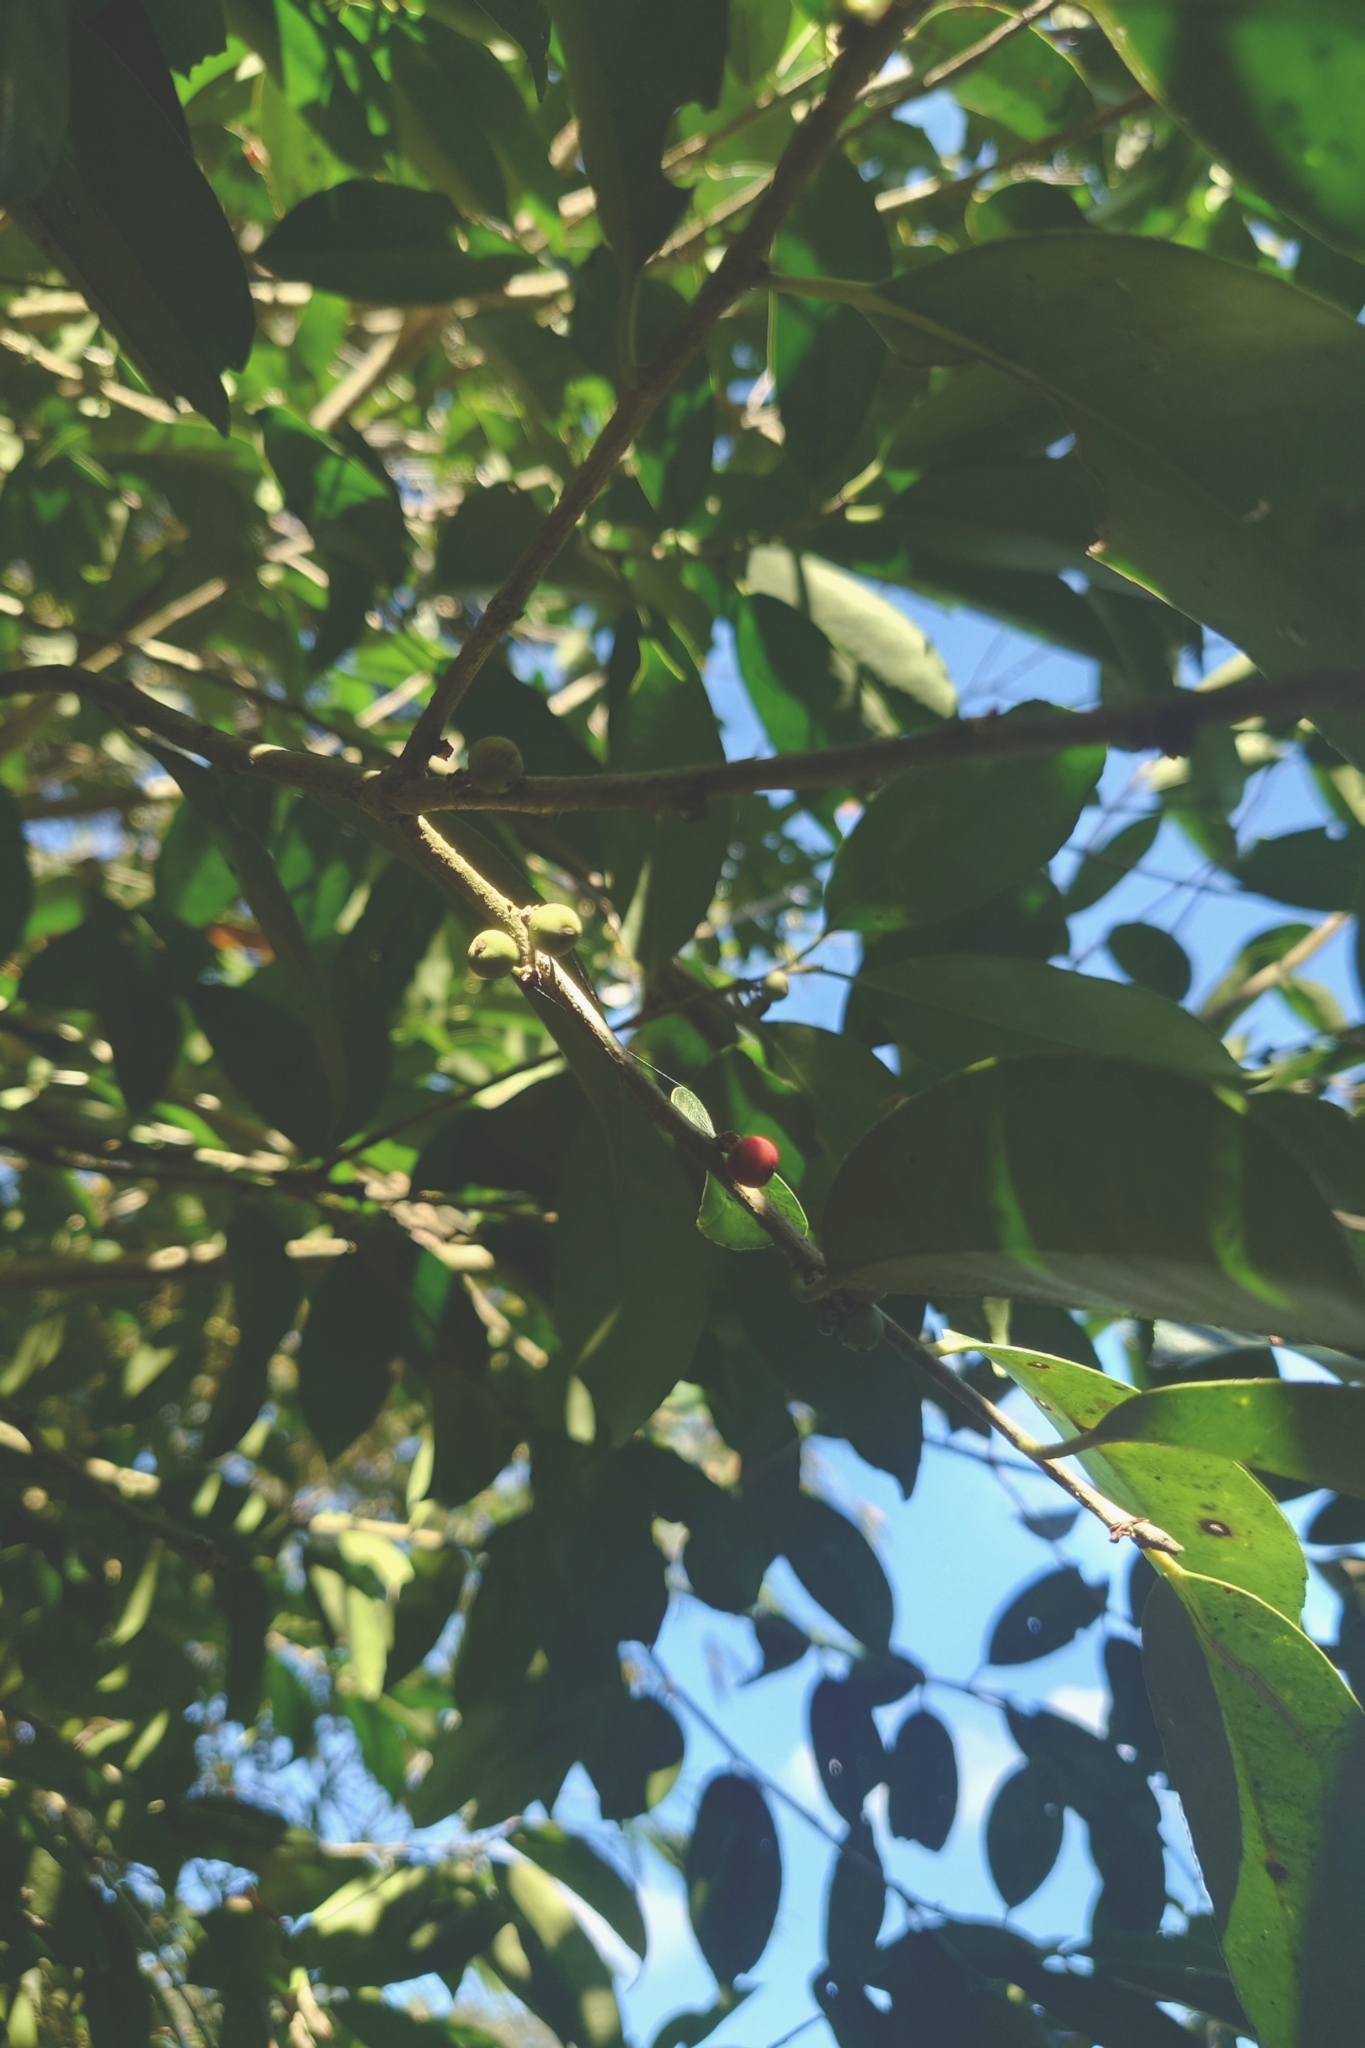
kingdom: Plantae
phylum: Tracheophyta
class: Magnoliopsida
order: Ericales
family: Pentaphylacaceae
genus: Cleyera
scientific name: Cleyera japonica
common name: Sakaki
